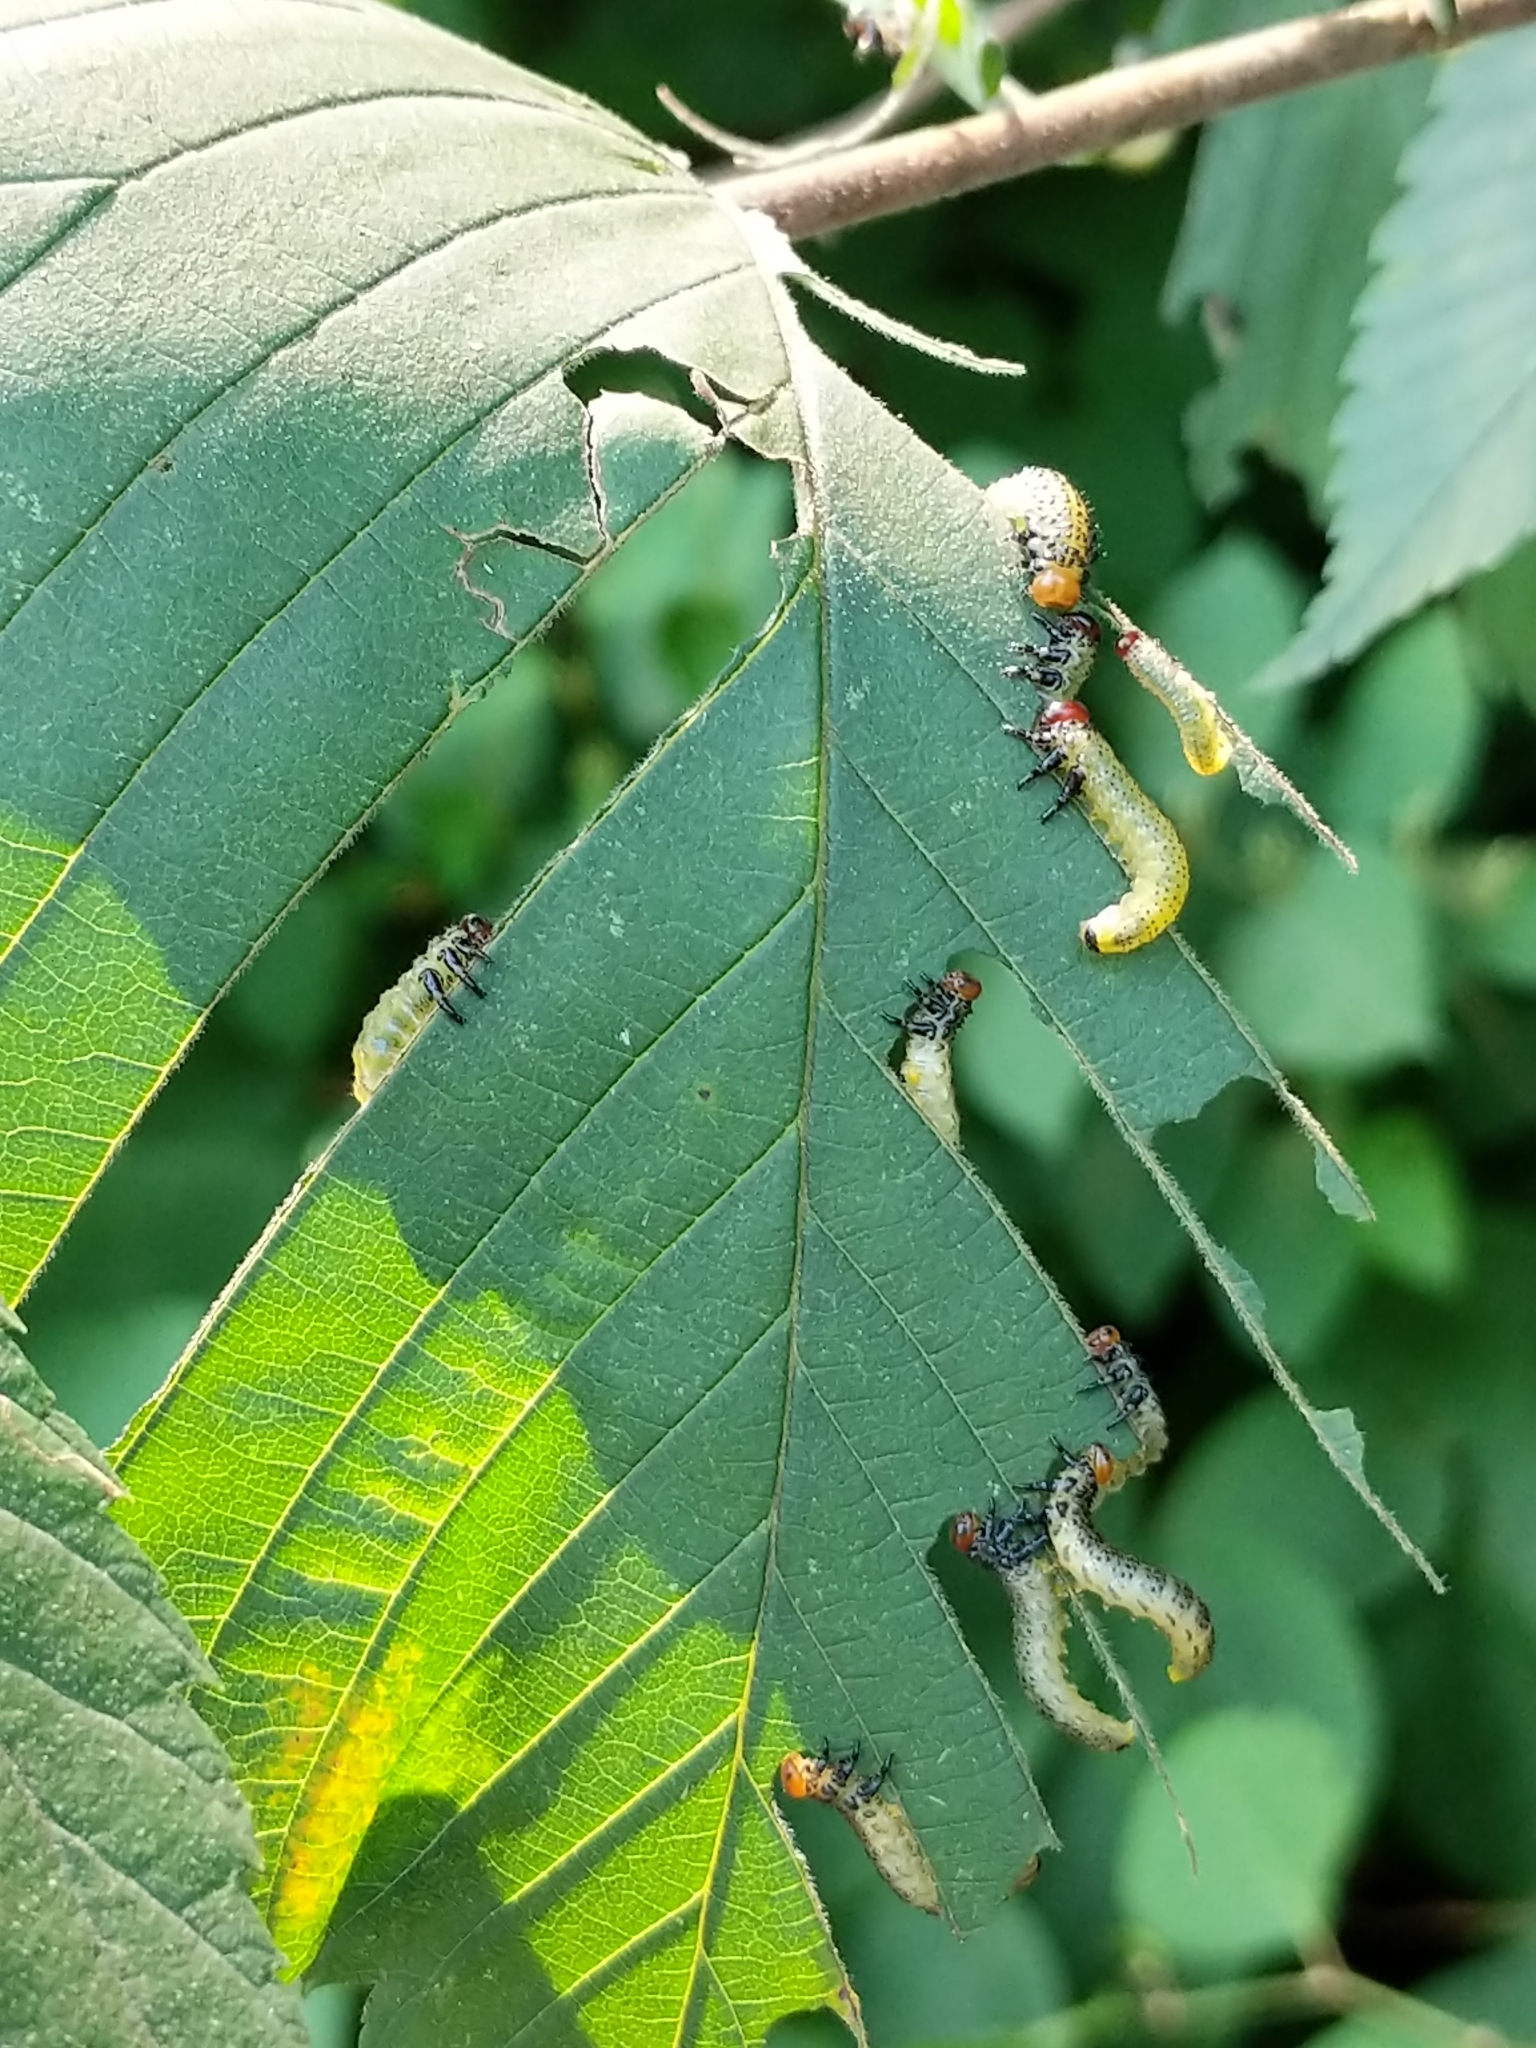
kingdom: Animalia
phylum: Arthropoda
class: Insecta
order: Hymenoptera
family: Argidae
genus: Arge
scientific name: Arge
